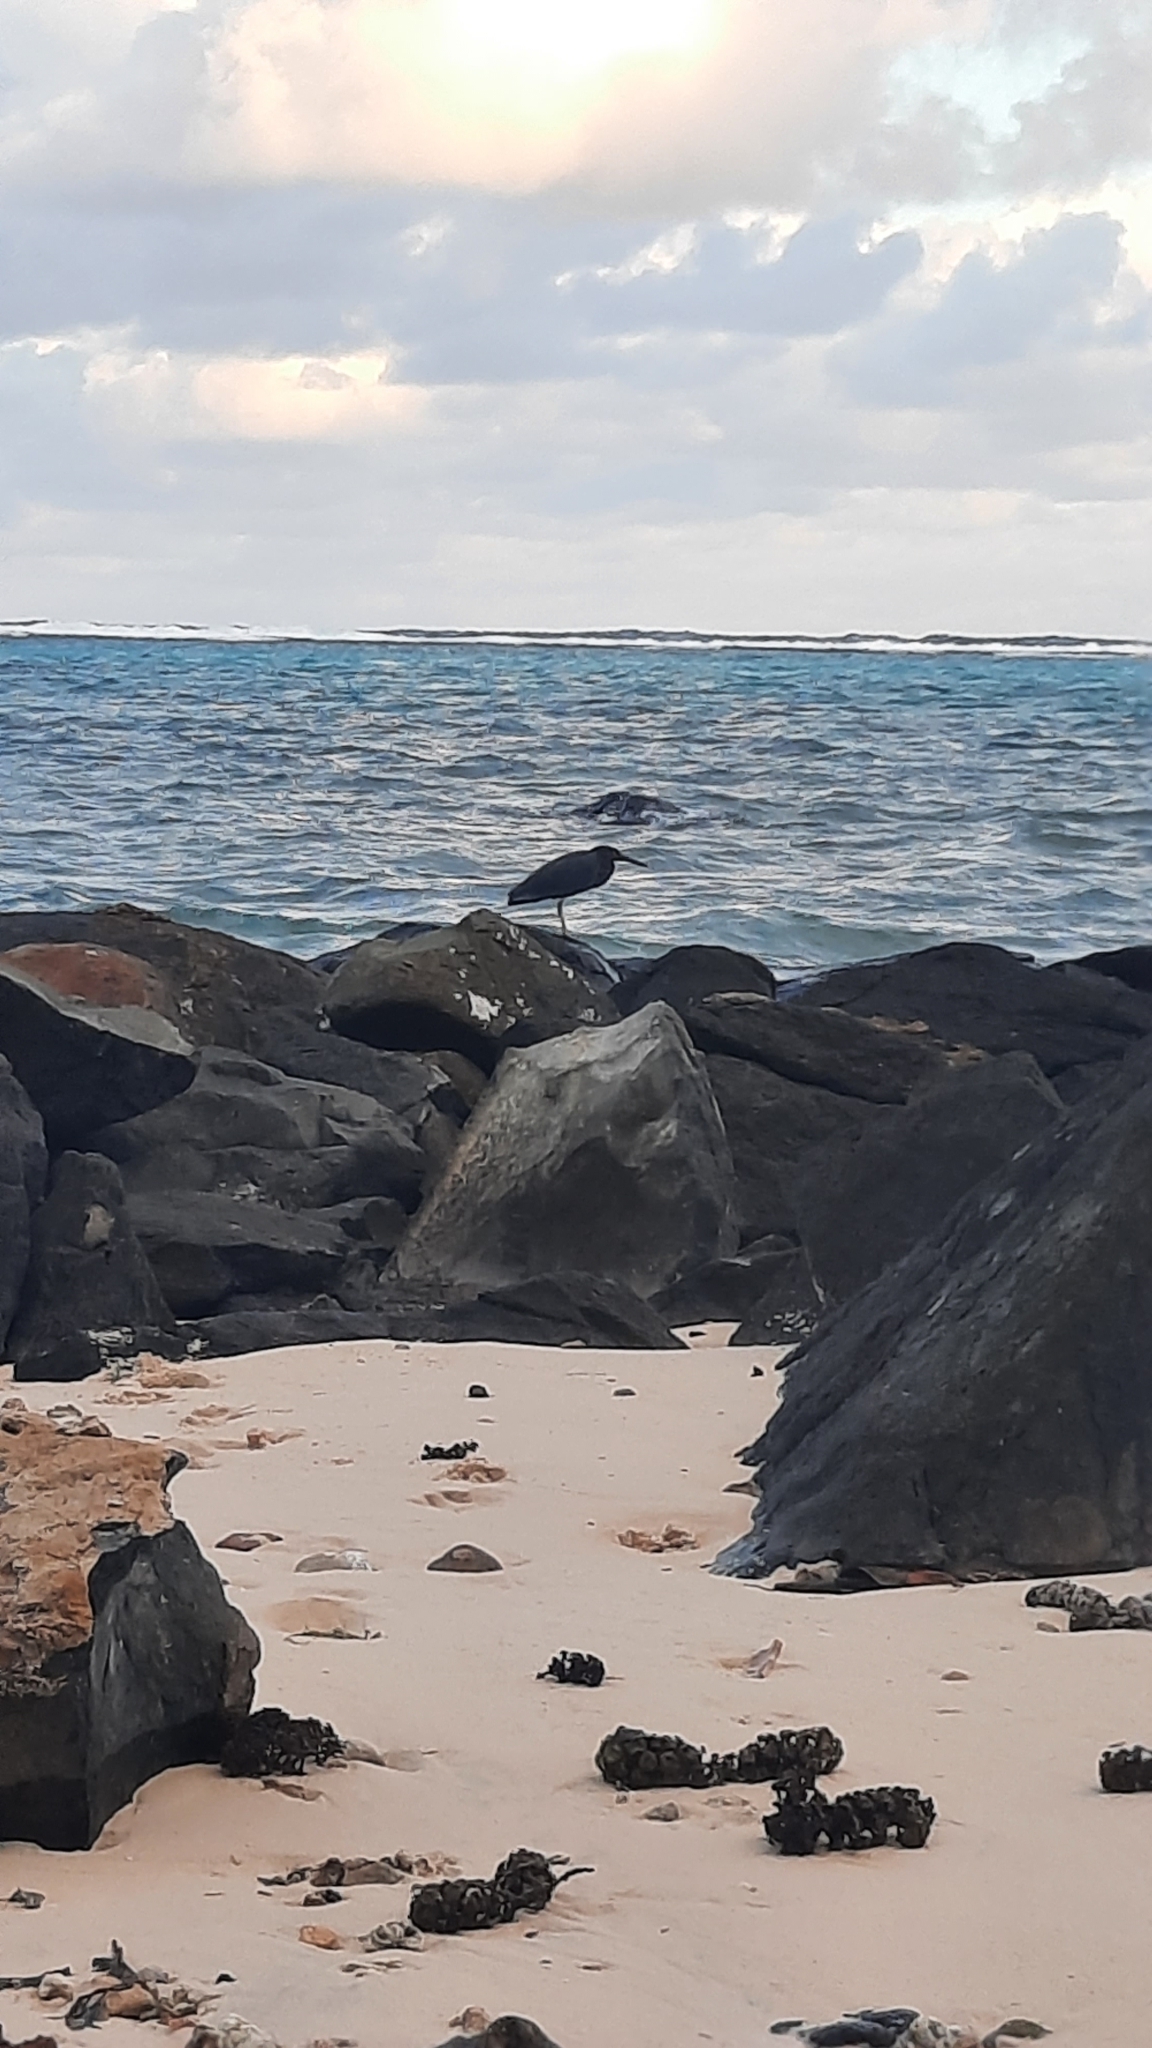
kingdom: Animalia
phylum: Chordata
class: Aves
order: Pelecaniformes
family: Ardeidae
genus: Egretta
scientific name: Egretta sacra
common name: Pacific reef heron
